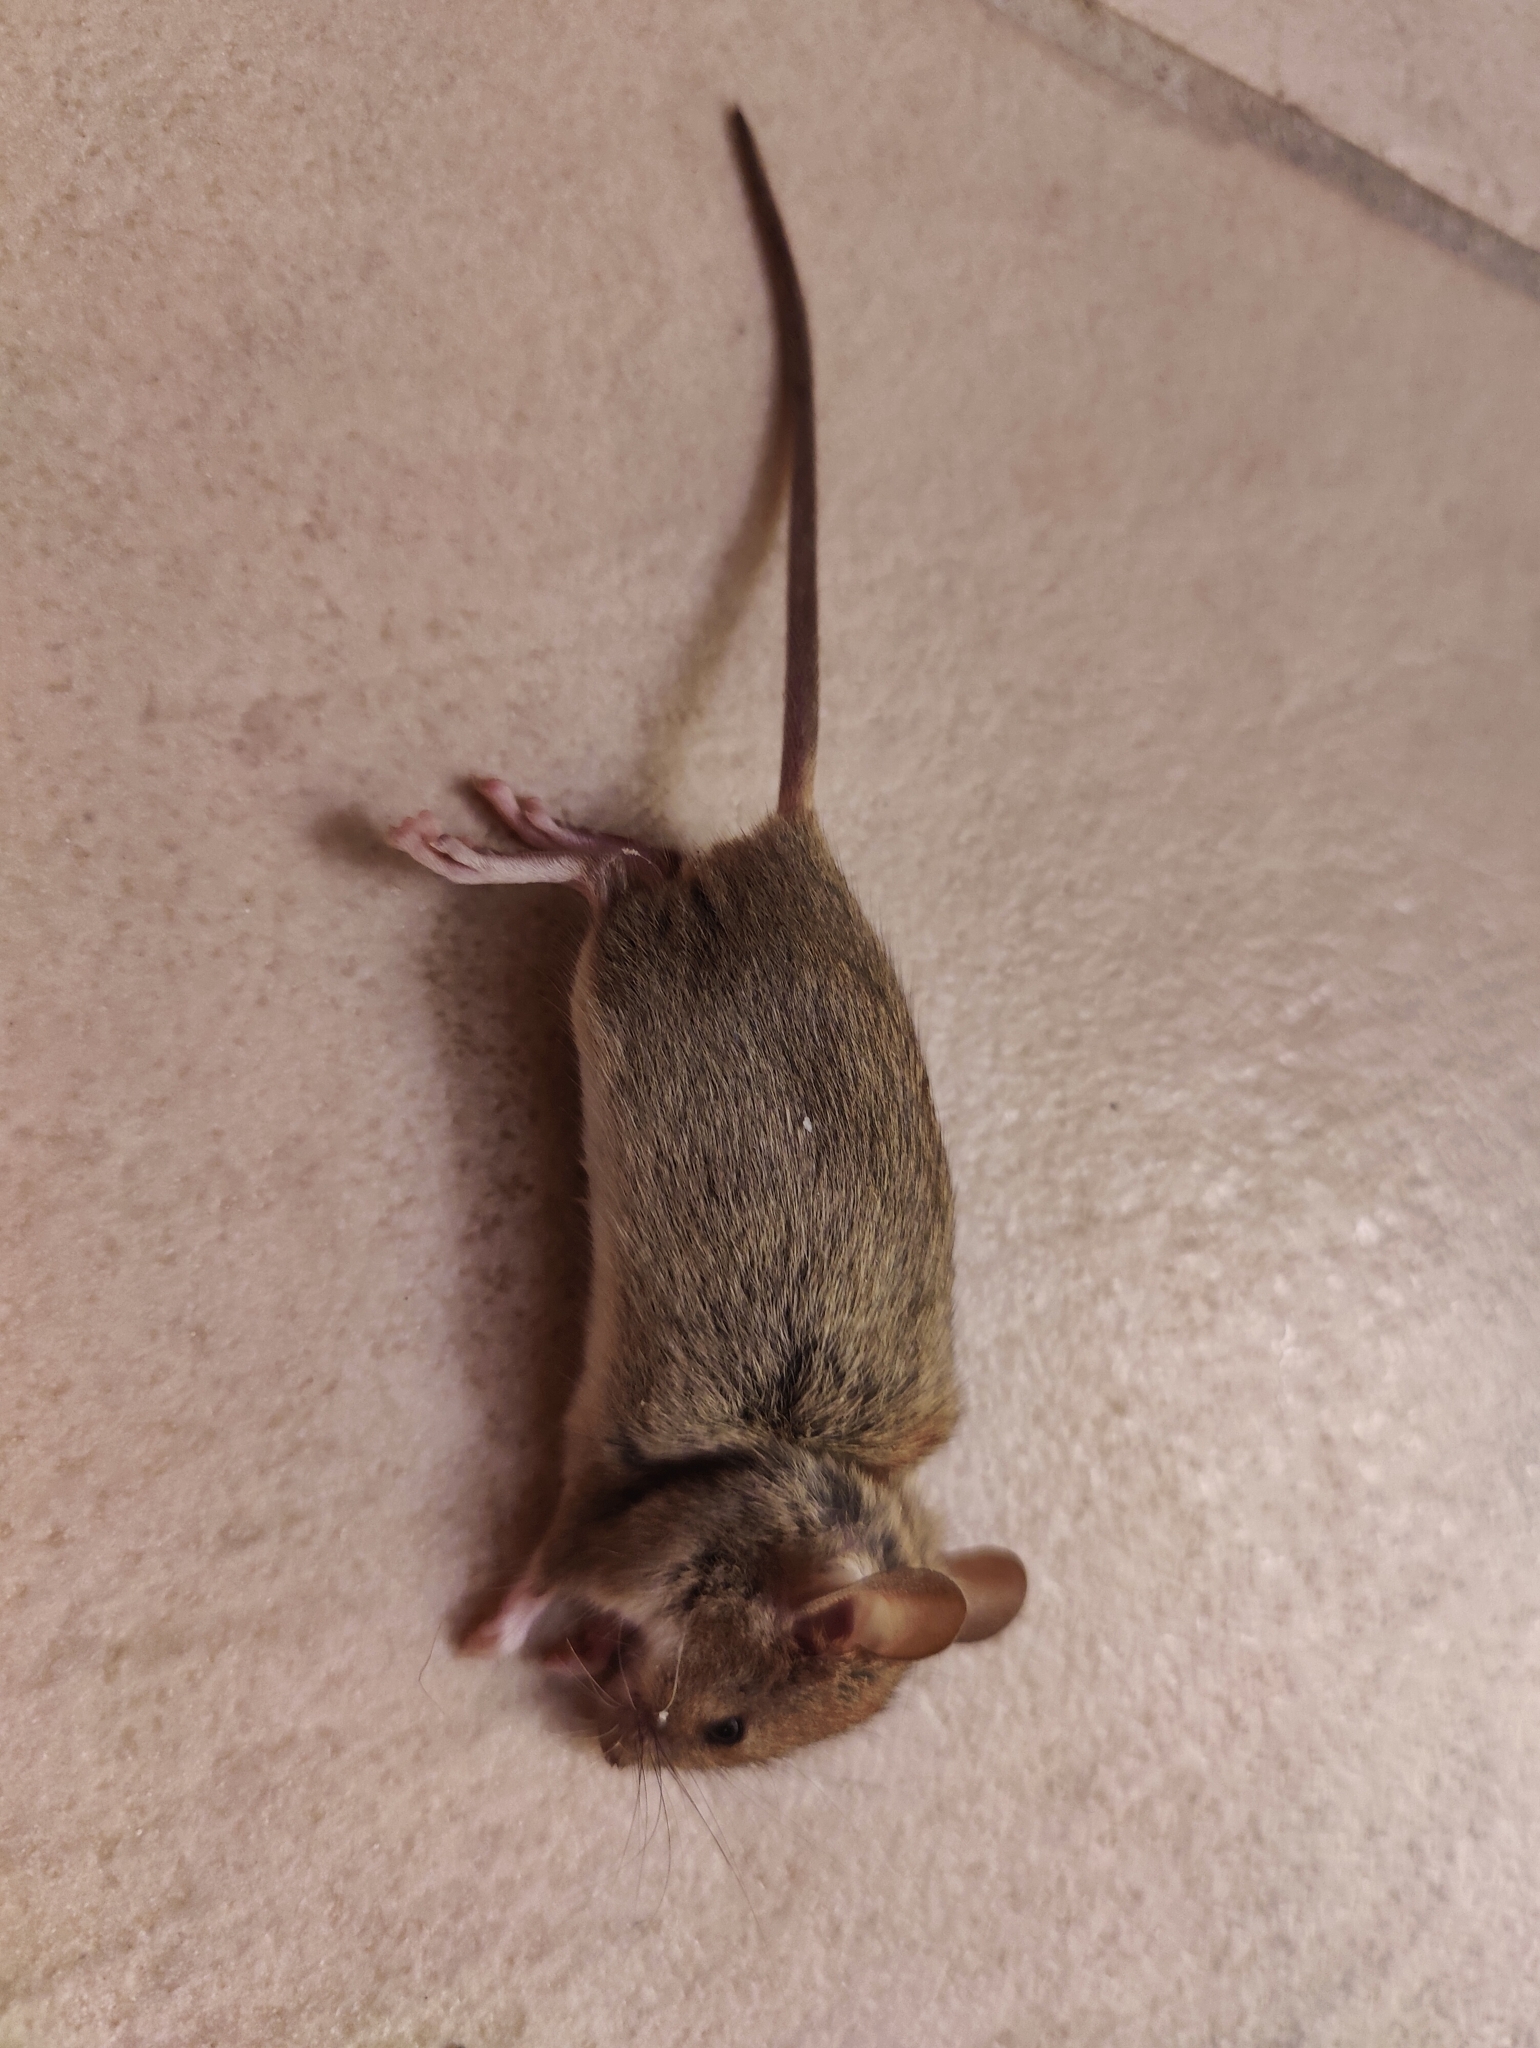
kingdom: Animalia
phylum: Chordata
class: Mammalia
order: Rodentia
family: Muridae
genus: Mus
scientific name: Mus musculus
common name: House mouse
